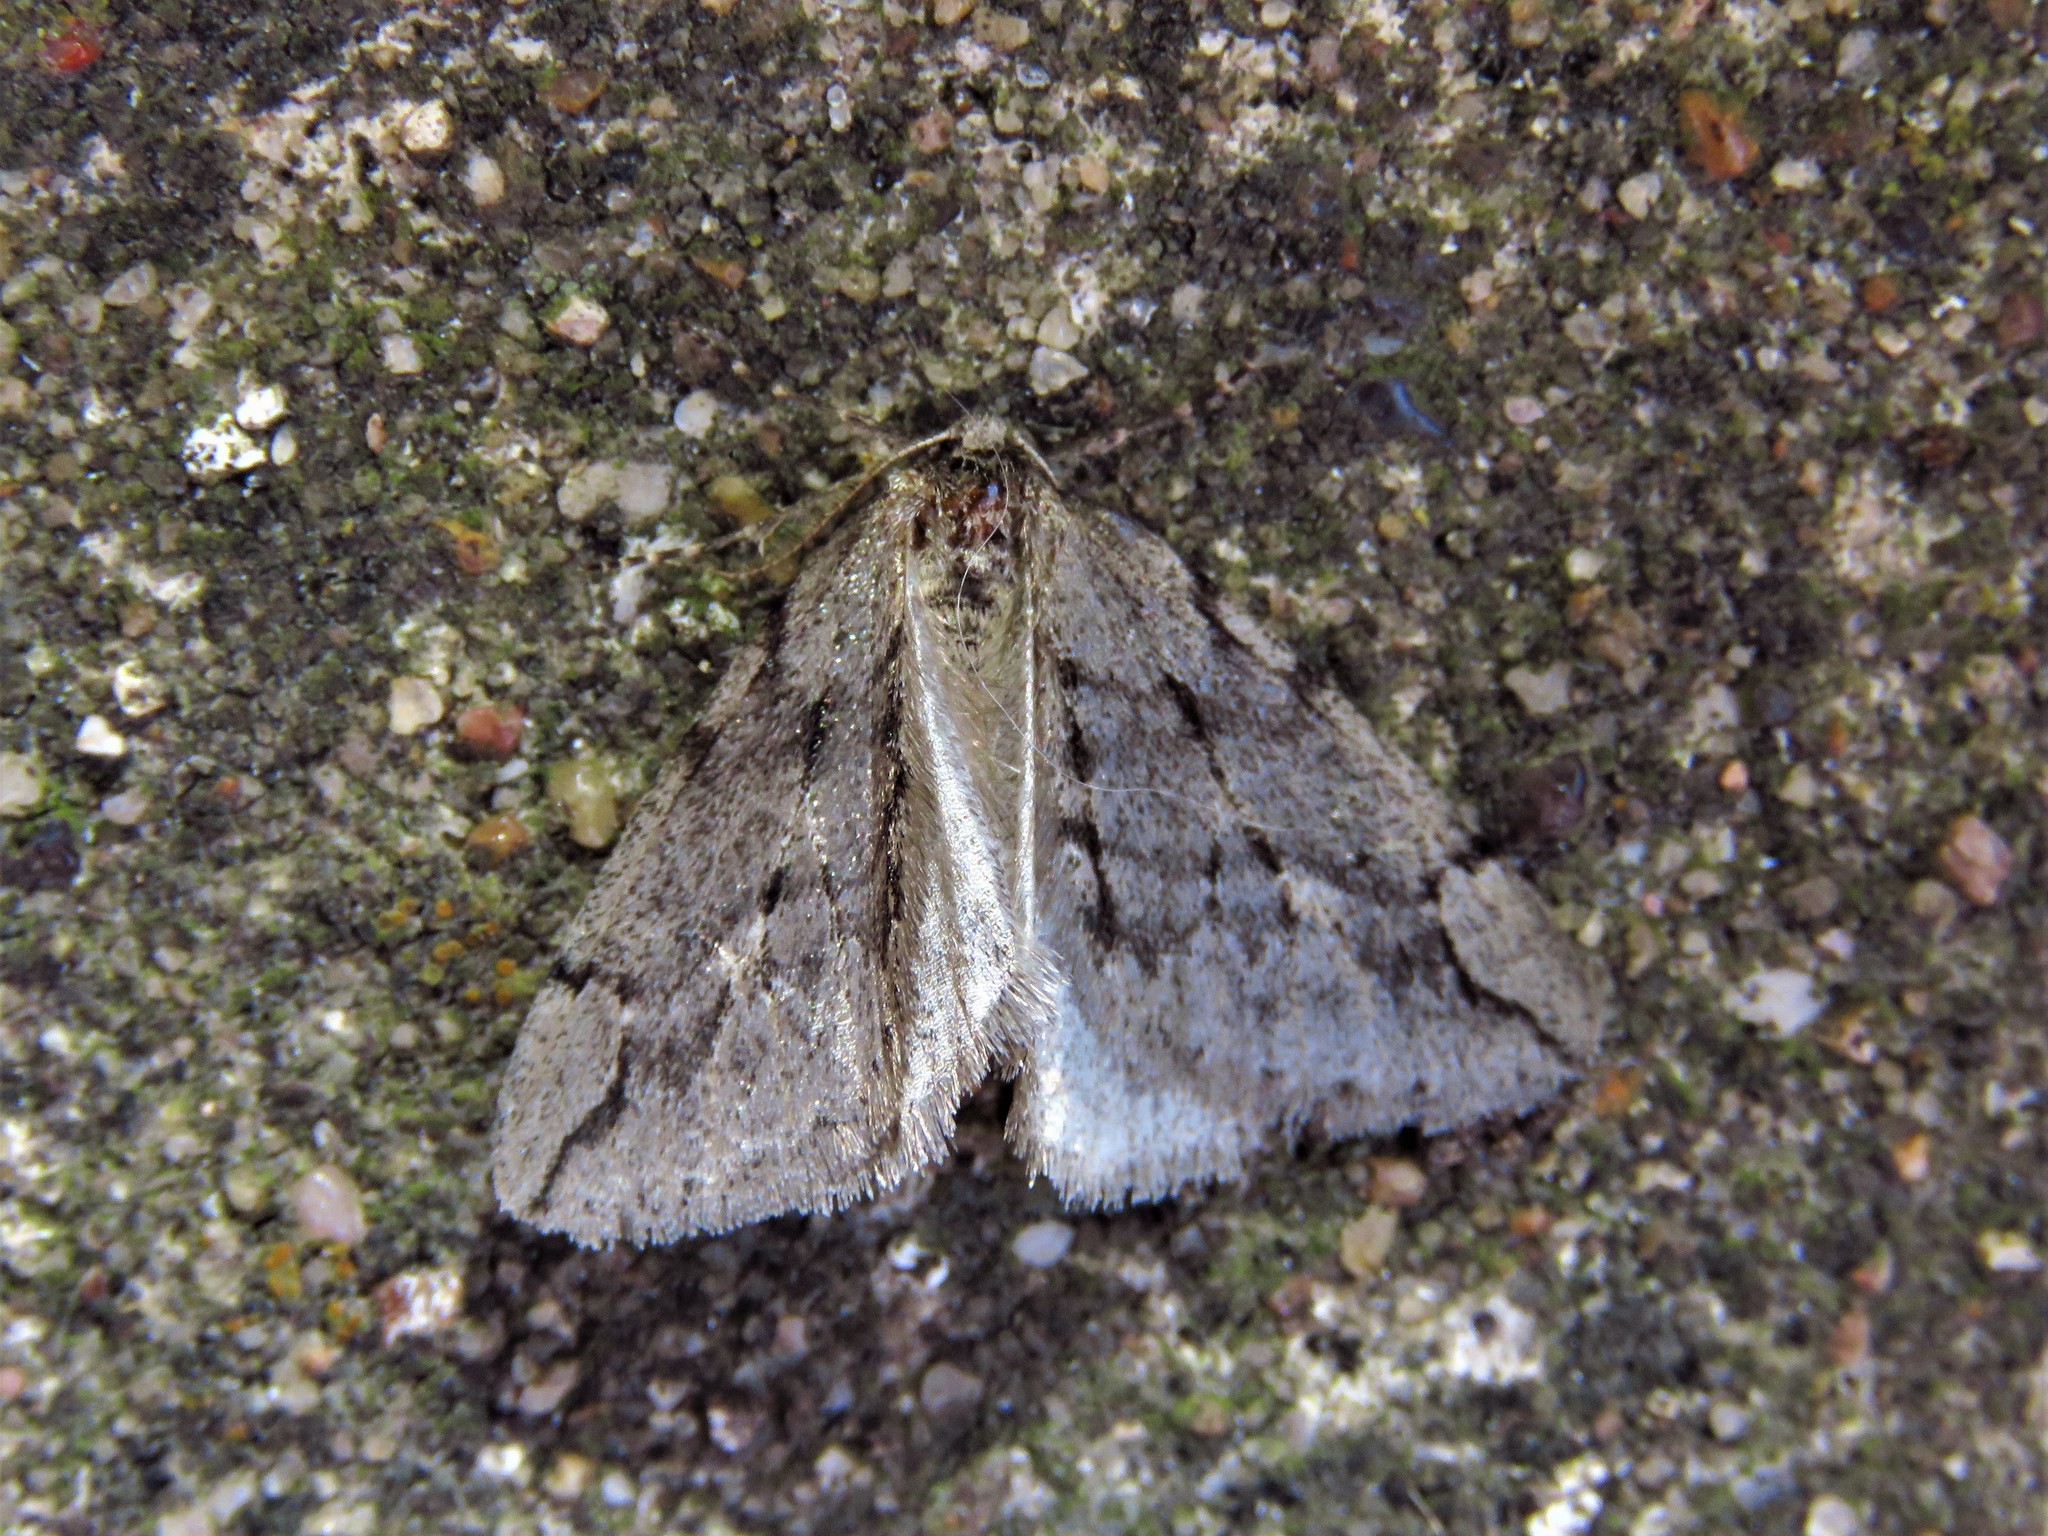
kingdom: Animalia
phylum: Arthropoda
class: Insecta
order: Lepidoptera
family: Geometridae
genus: Paleacrita
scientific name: Paleacrita vernata
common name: Spring cankerworm
